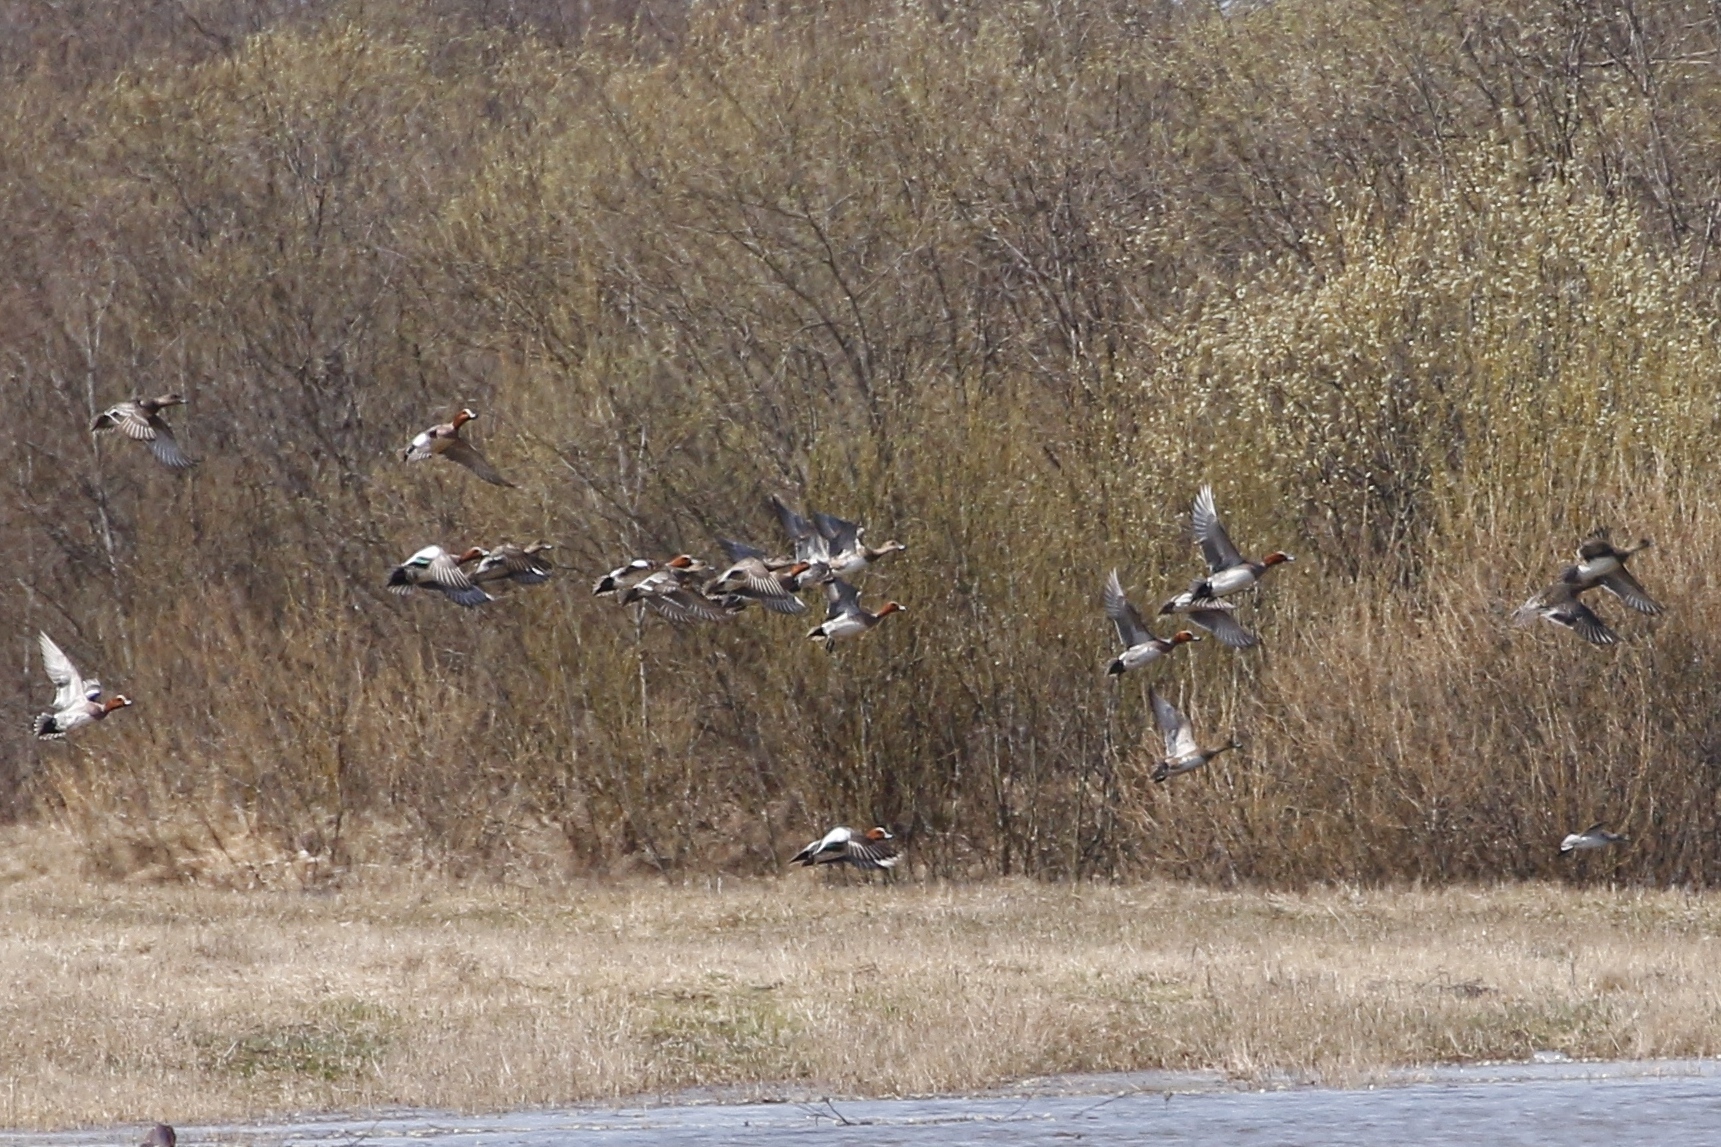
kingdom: Animalia
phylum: Chordata
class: Aves
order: Anseriformes
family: Anatidae
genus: Mareca
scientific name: Mareca penelope
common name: Eurasian wigeon
